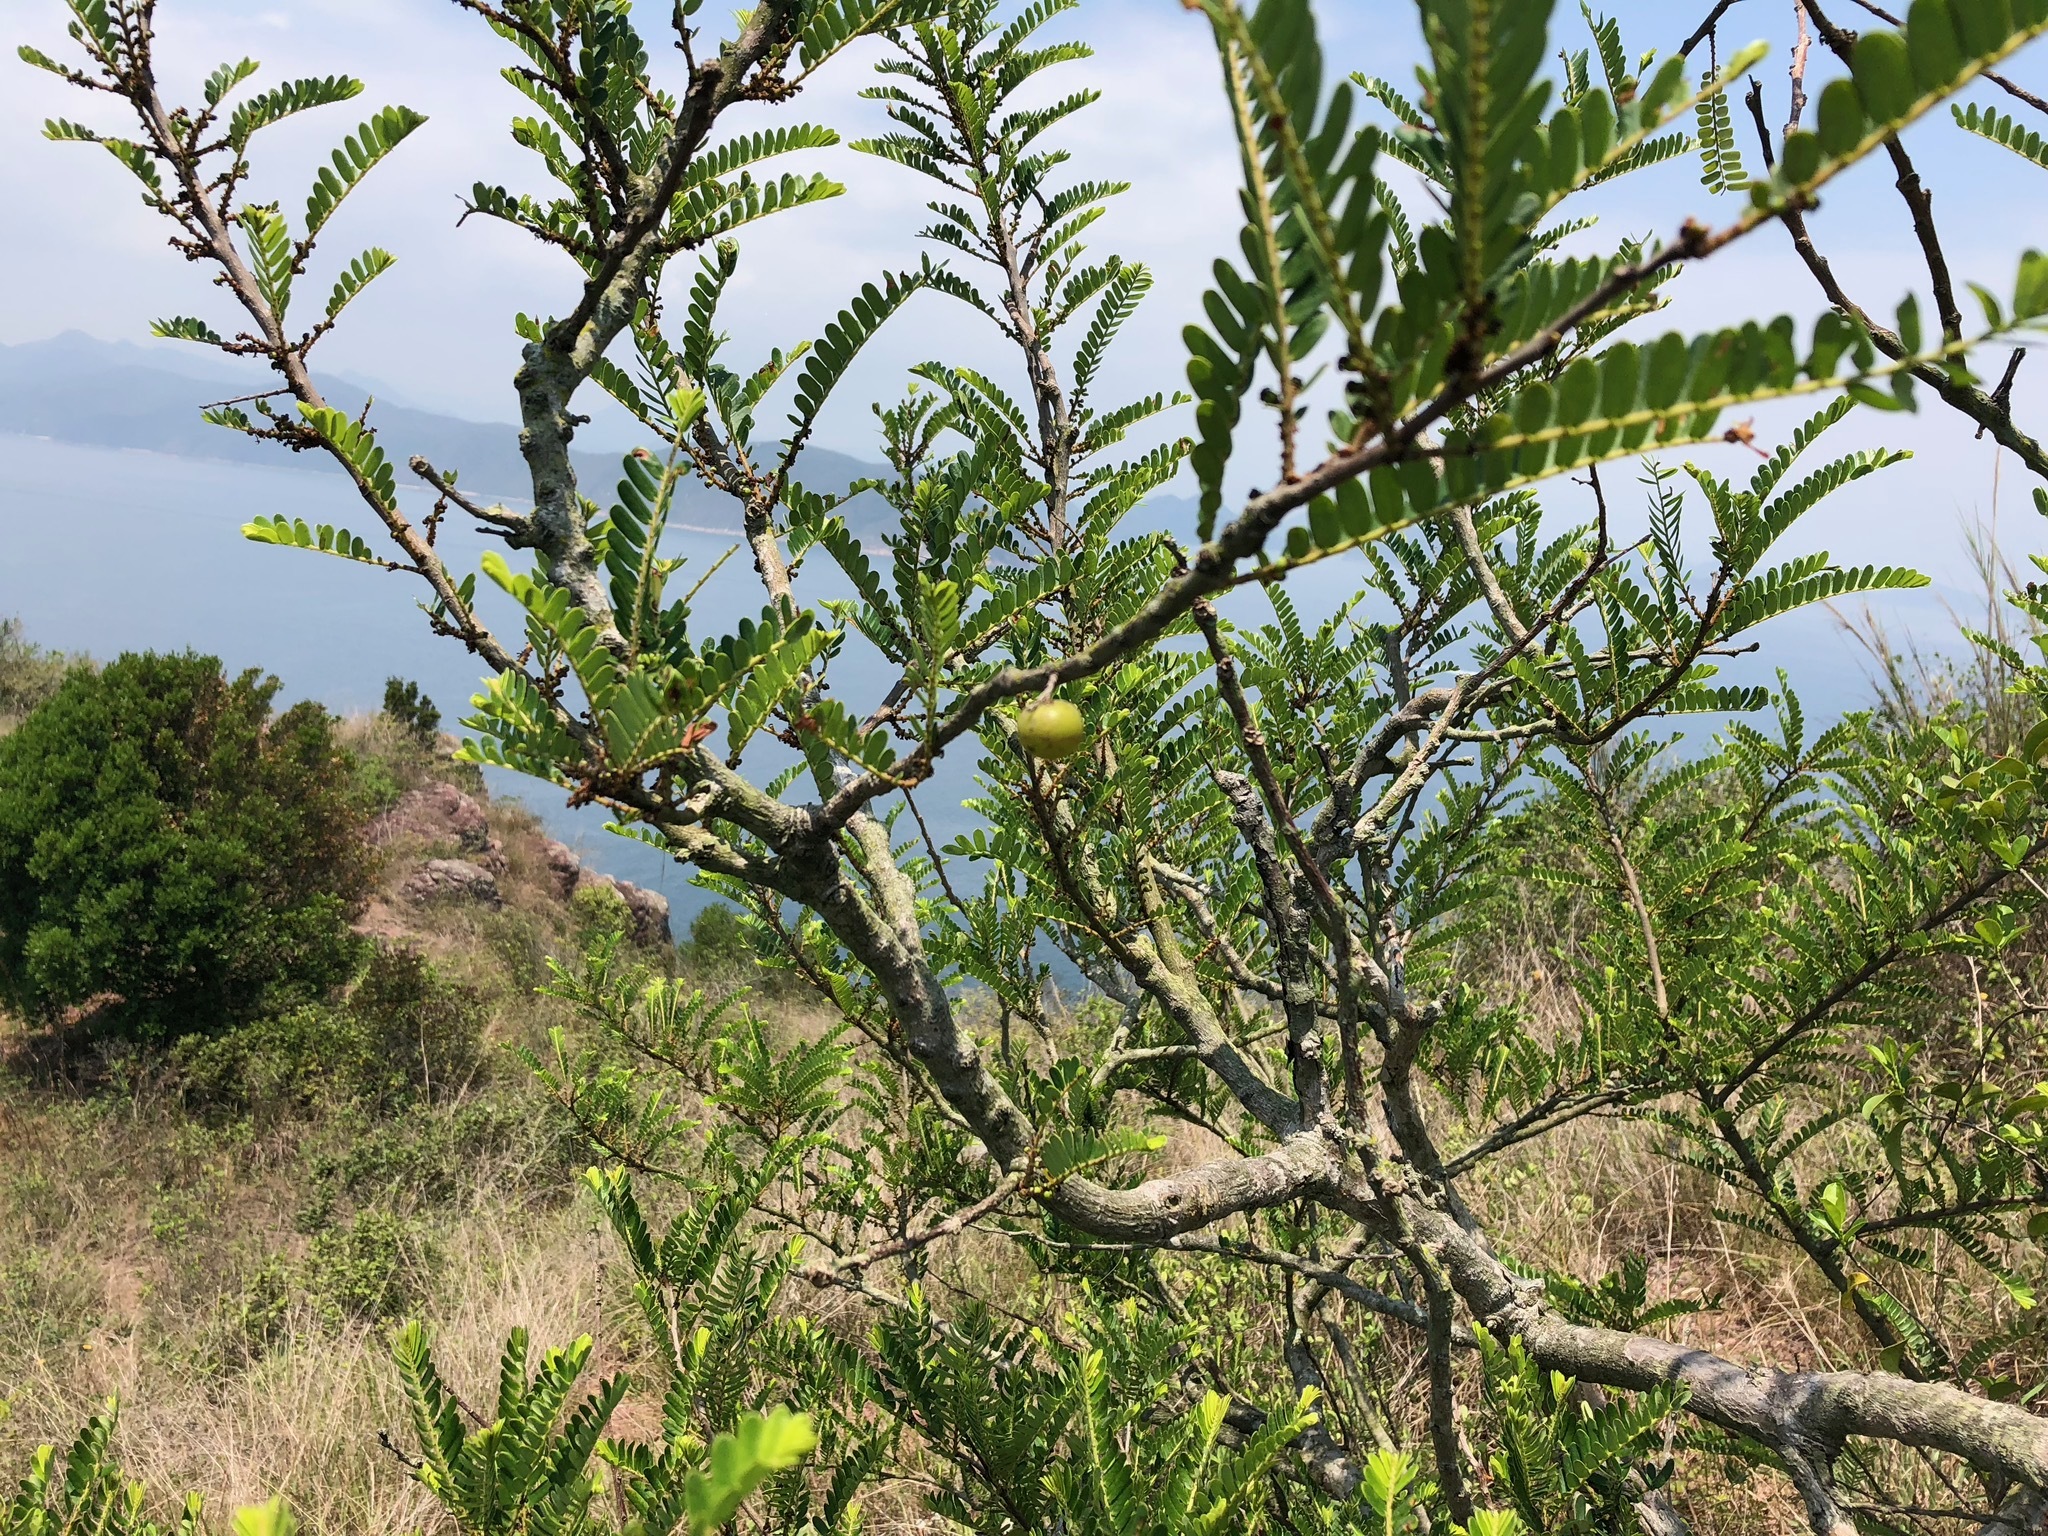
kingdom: Plantae
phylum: Tracheophyta
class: Magnoliopsida
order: Malpighiales
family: Phyllanthaceae
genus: Phyllanthus
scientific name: Phyllanthus emblica
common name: Indian gooseberry
